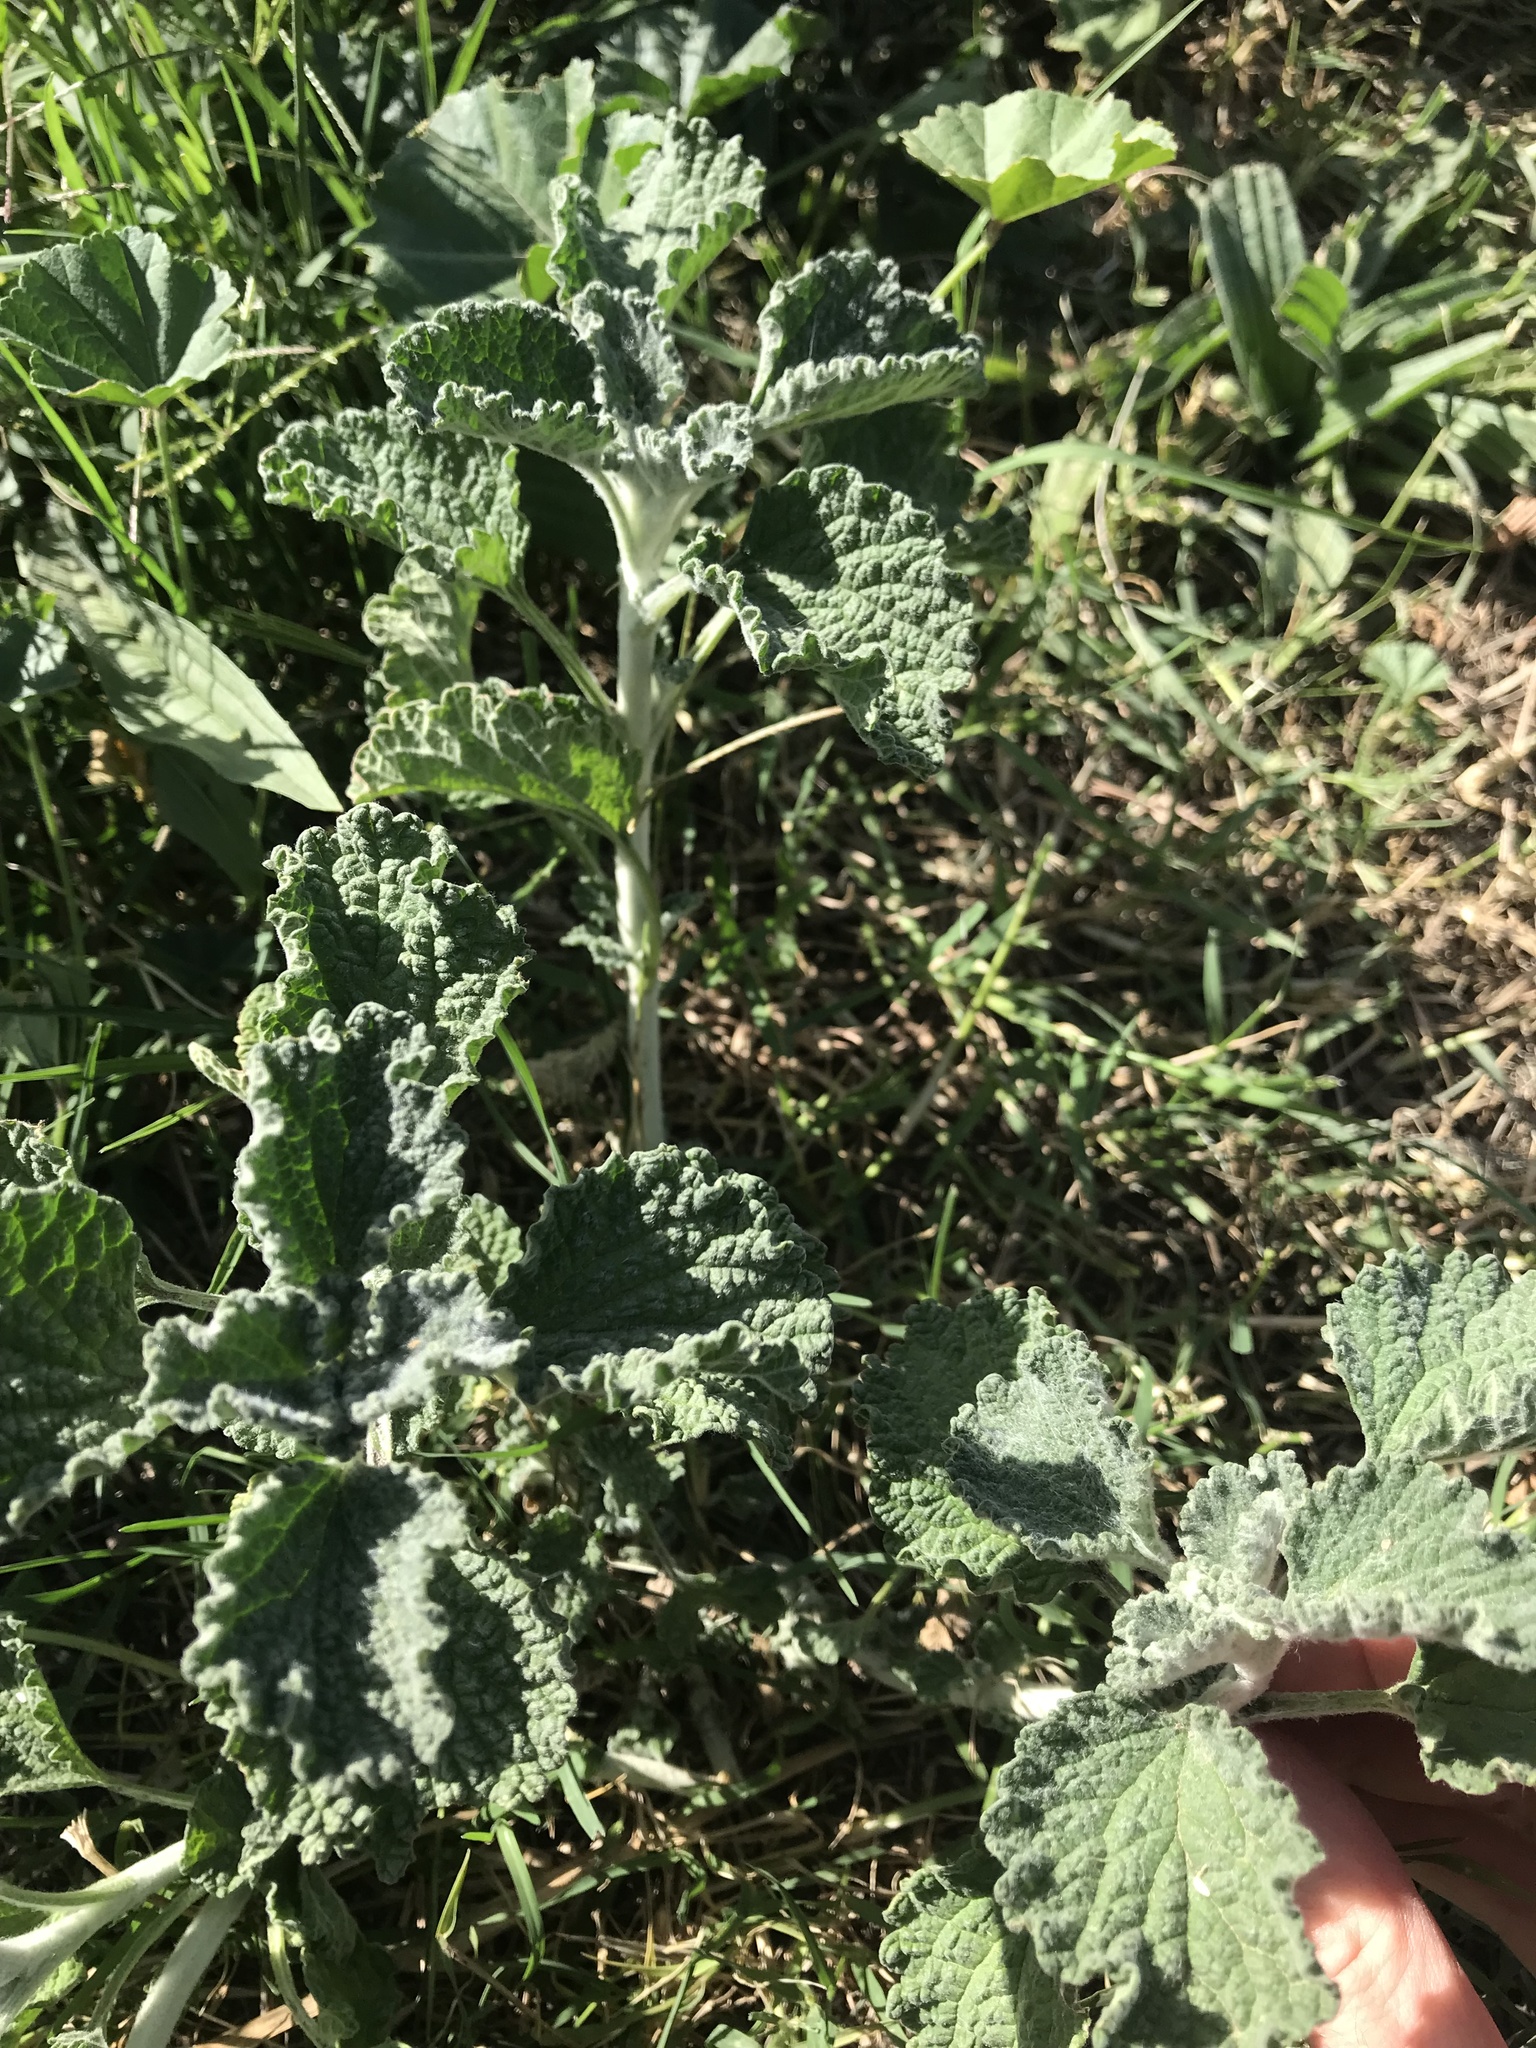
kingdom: Plantae
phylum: Tracheophyta
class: Magnoliopsida
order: Lamiales
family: Lamiaceae
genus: Marrubium
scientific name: Marrubium vulgare
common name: Horehound
